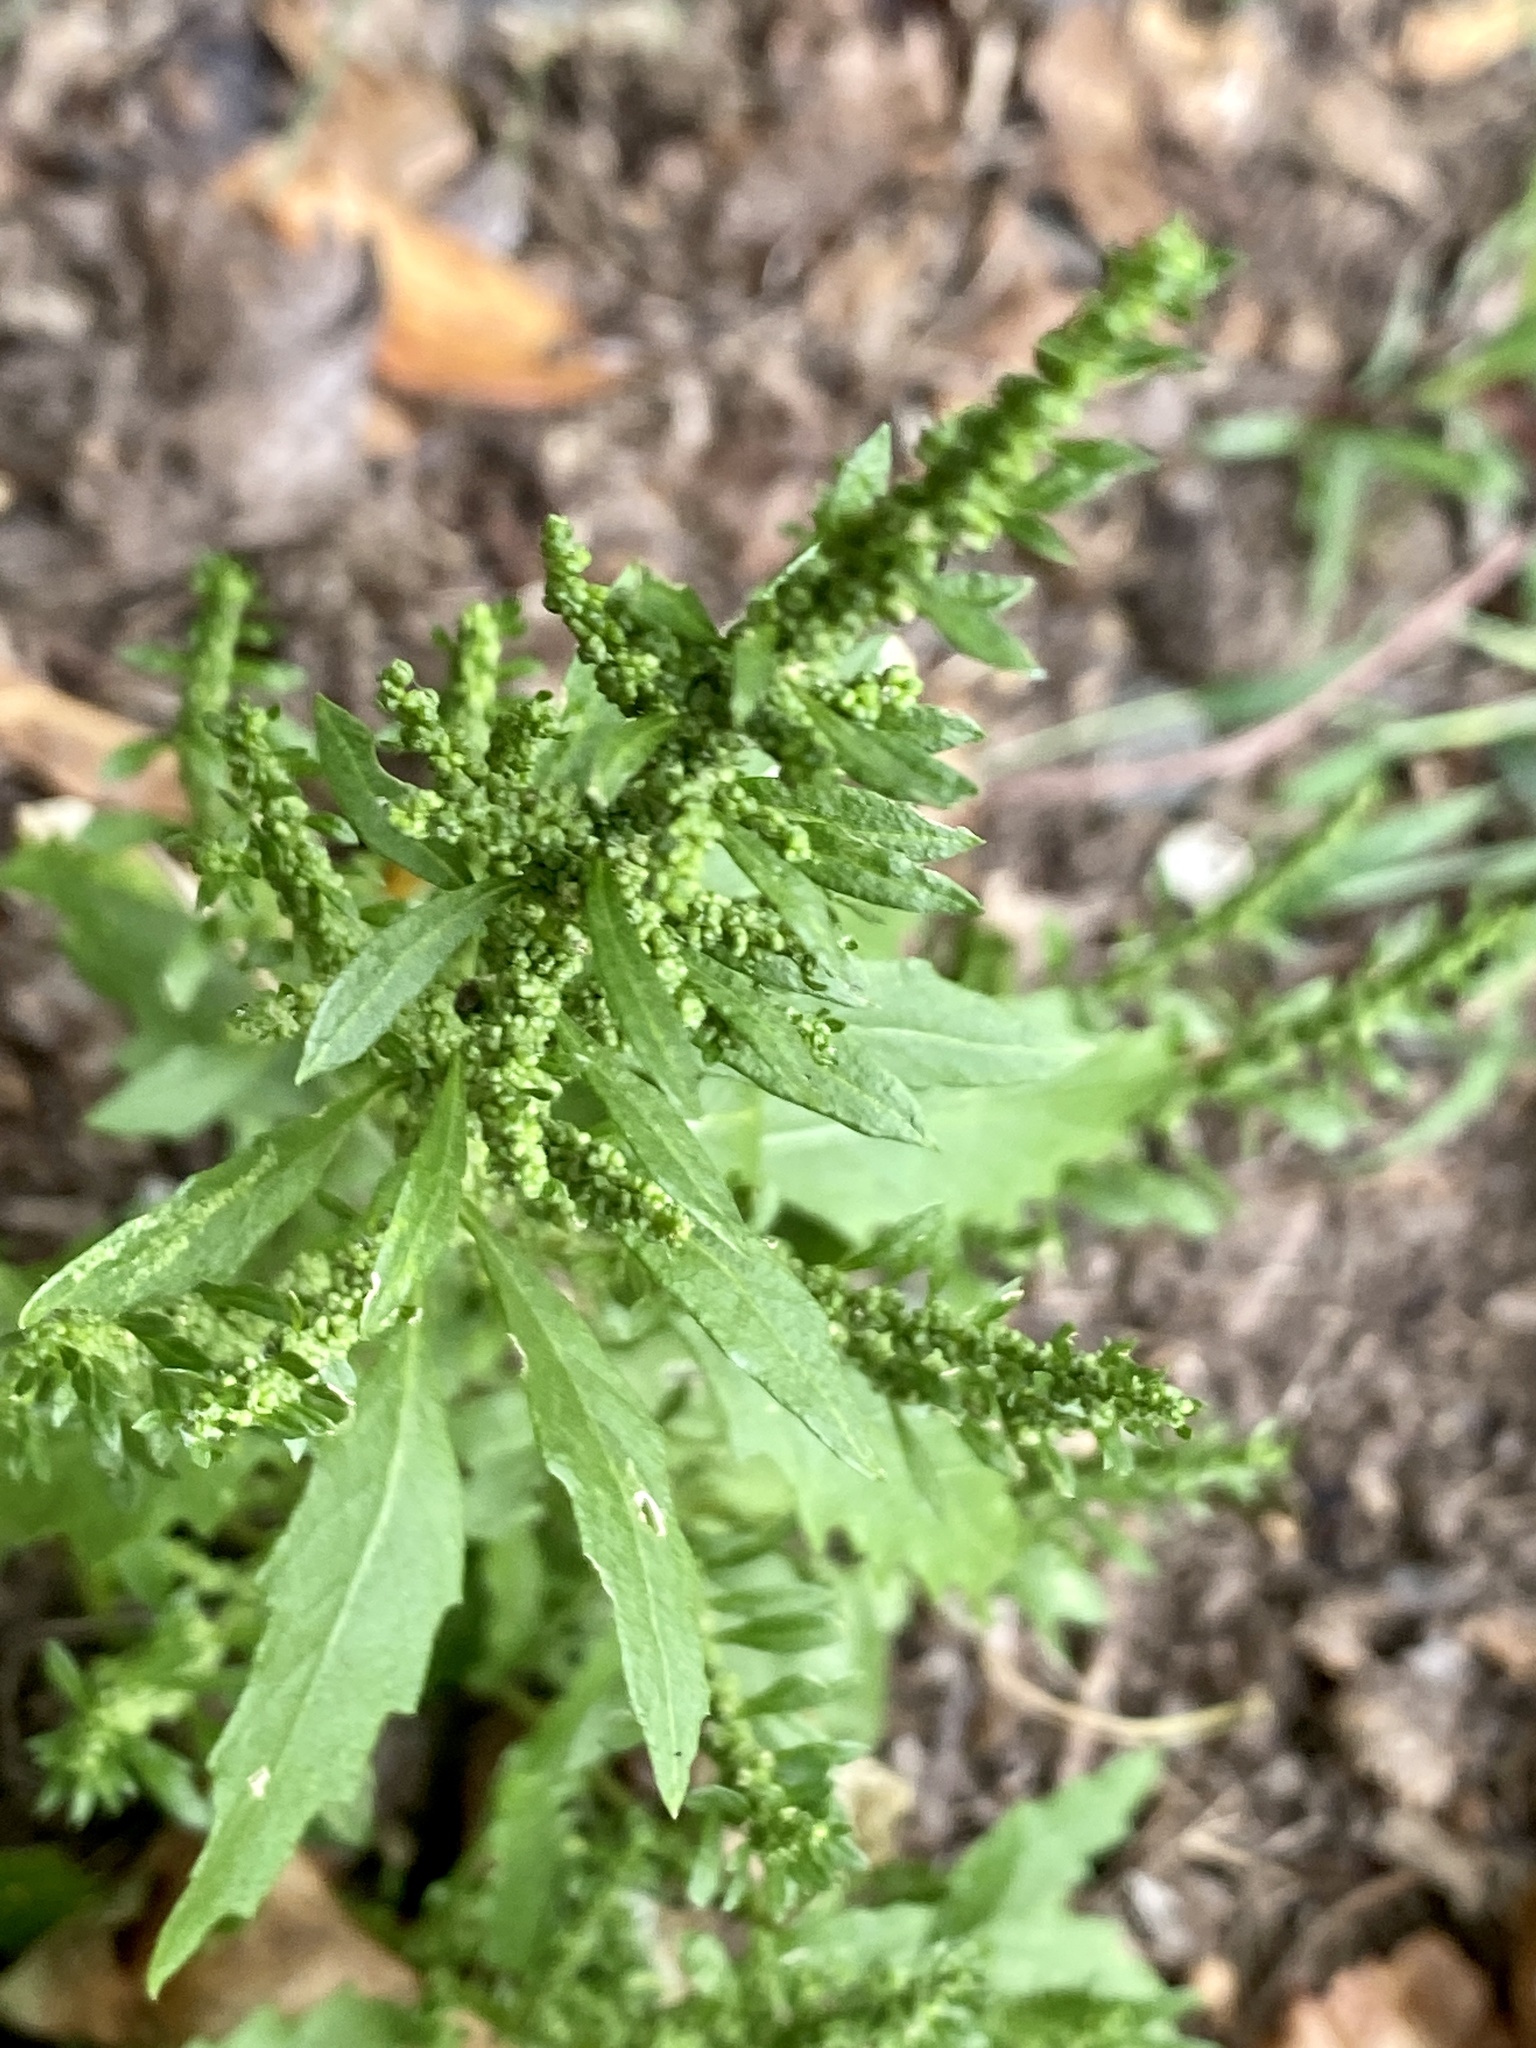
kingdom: Plantae
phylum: Tracheophyta
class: Magnoliopsida
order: Caryophyllales
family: Amaranthaceae
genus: Dysphania
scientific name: Dysphania ambrosioides
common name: Wormseed
